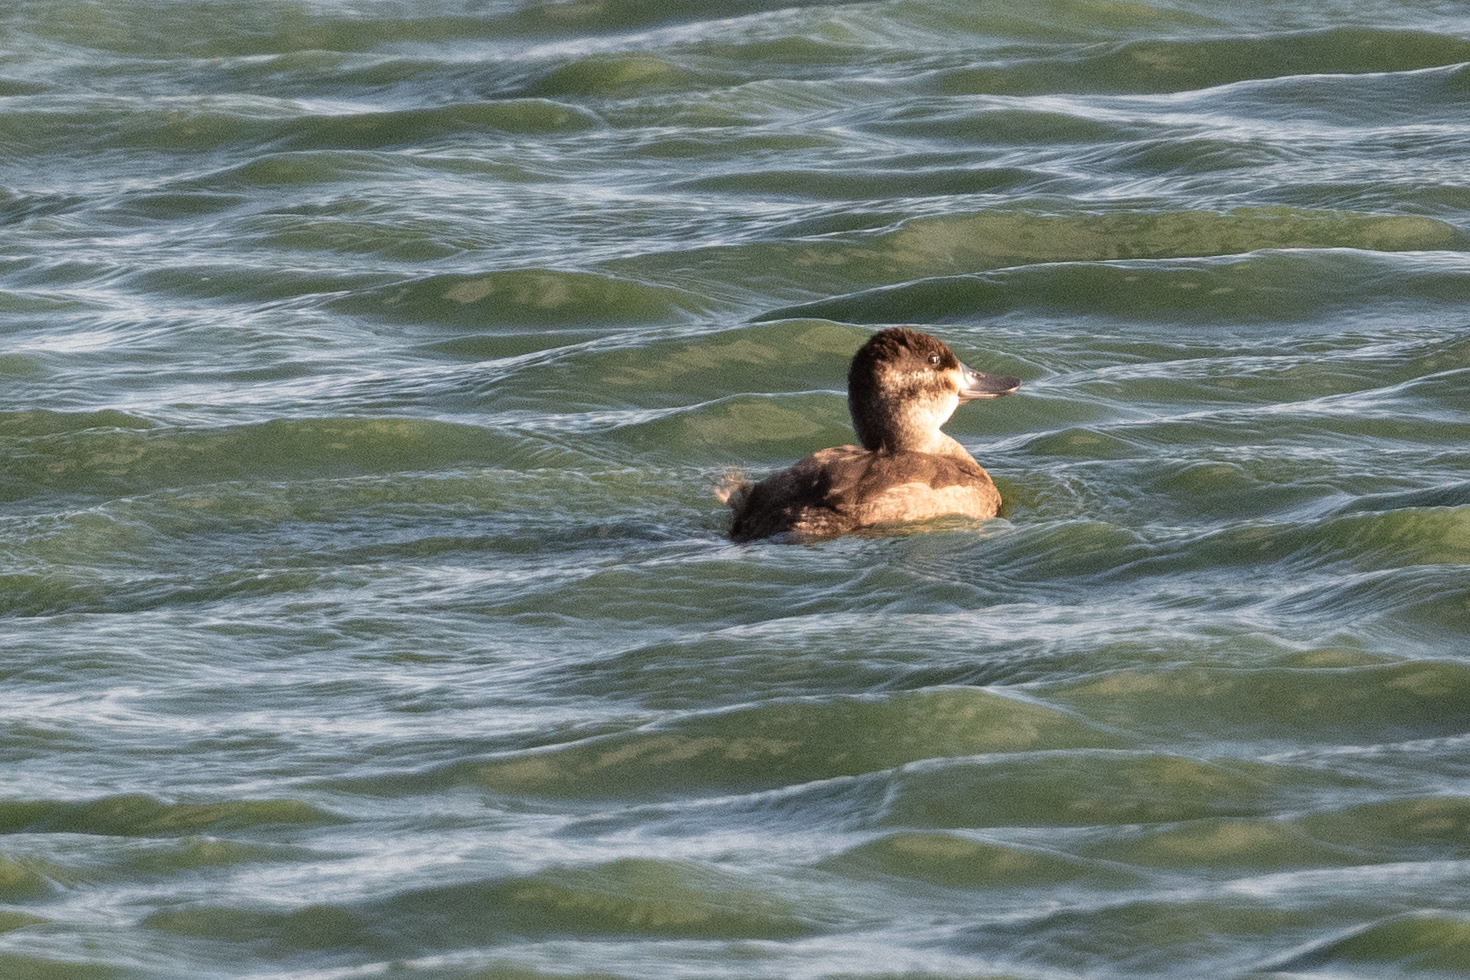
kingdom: Animalia
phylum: Chordata
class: Aves
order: Anseriformes
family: Anatidae
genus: Oxyura
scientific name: Oxyura jamaicensis
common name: Ruddy duck
